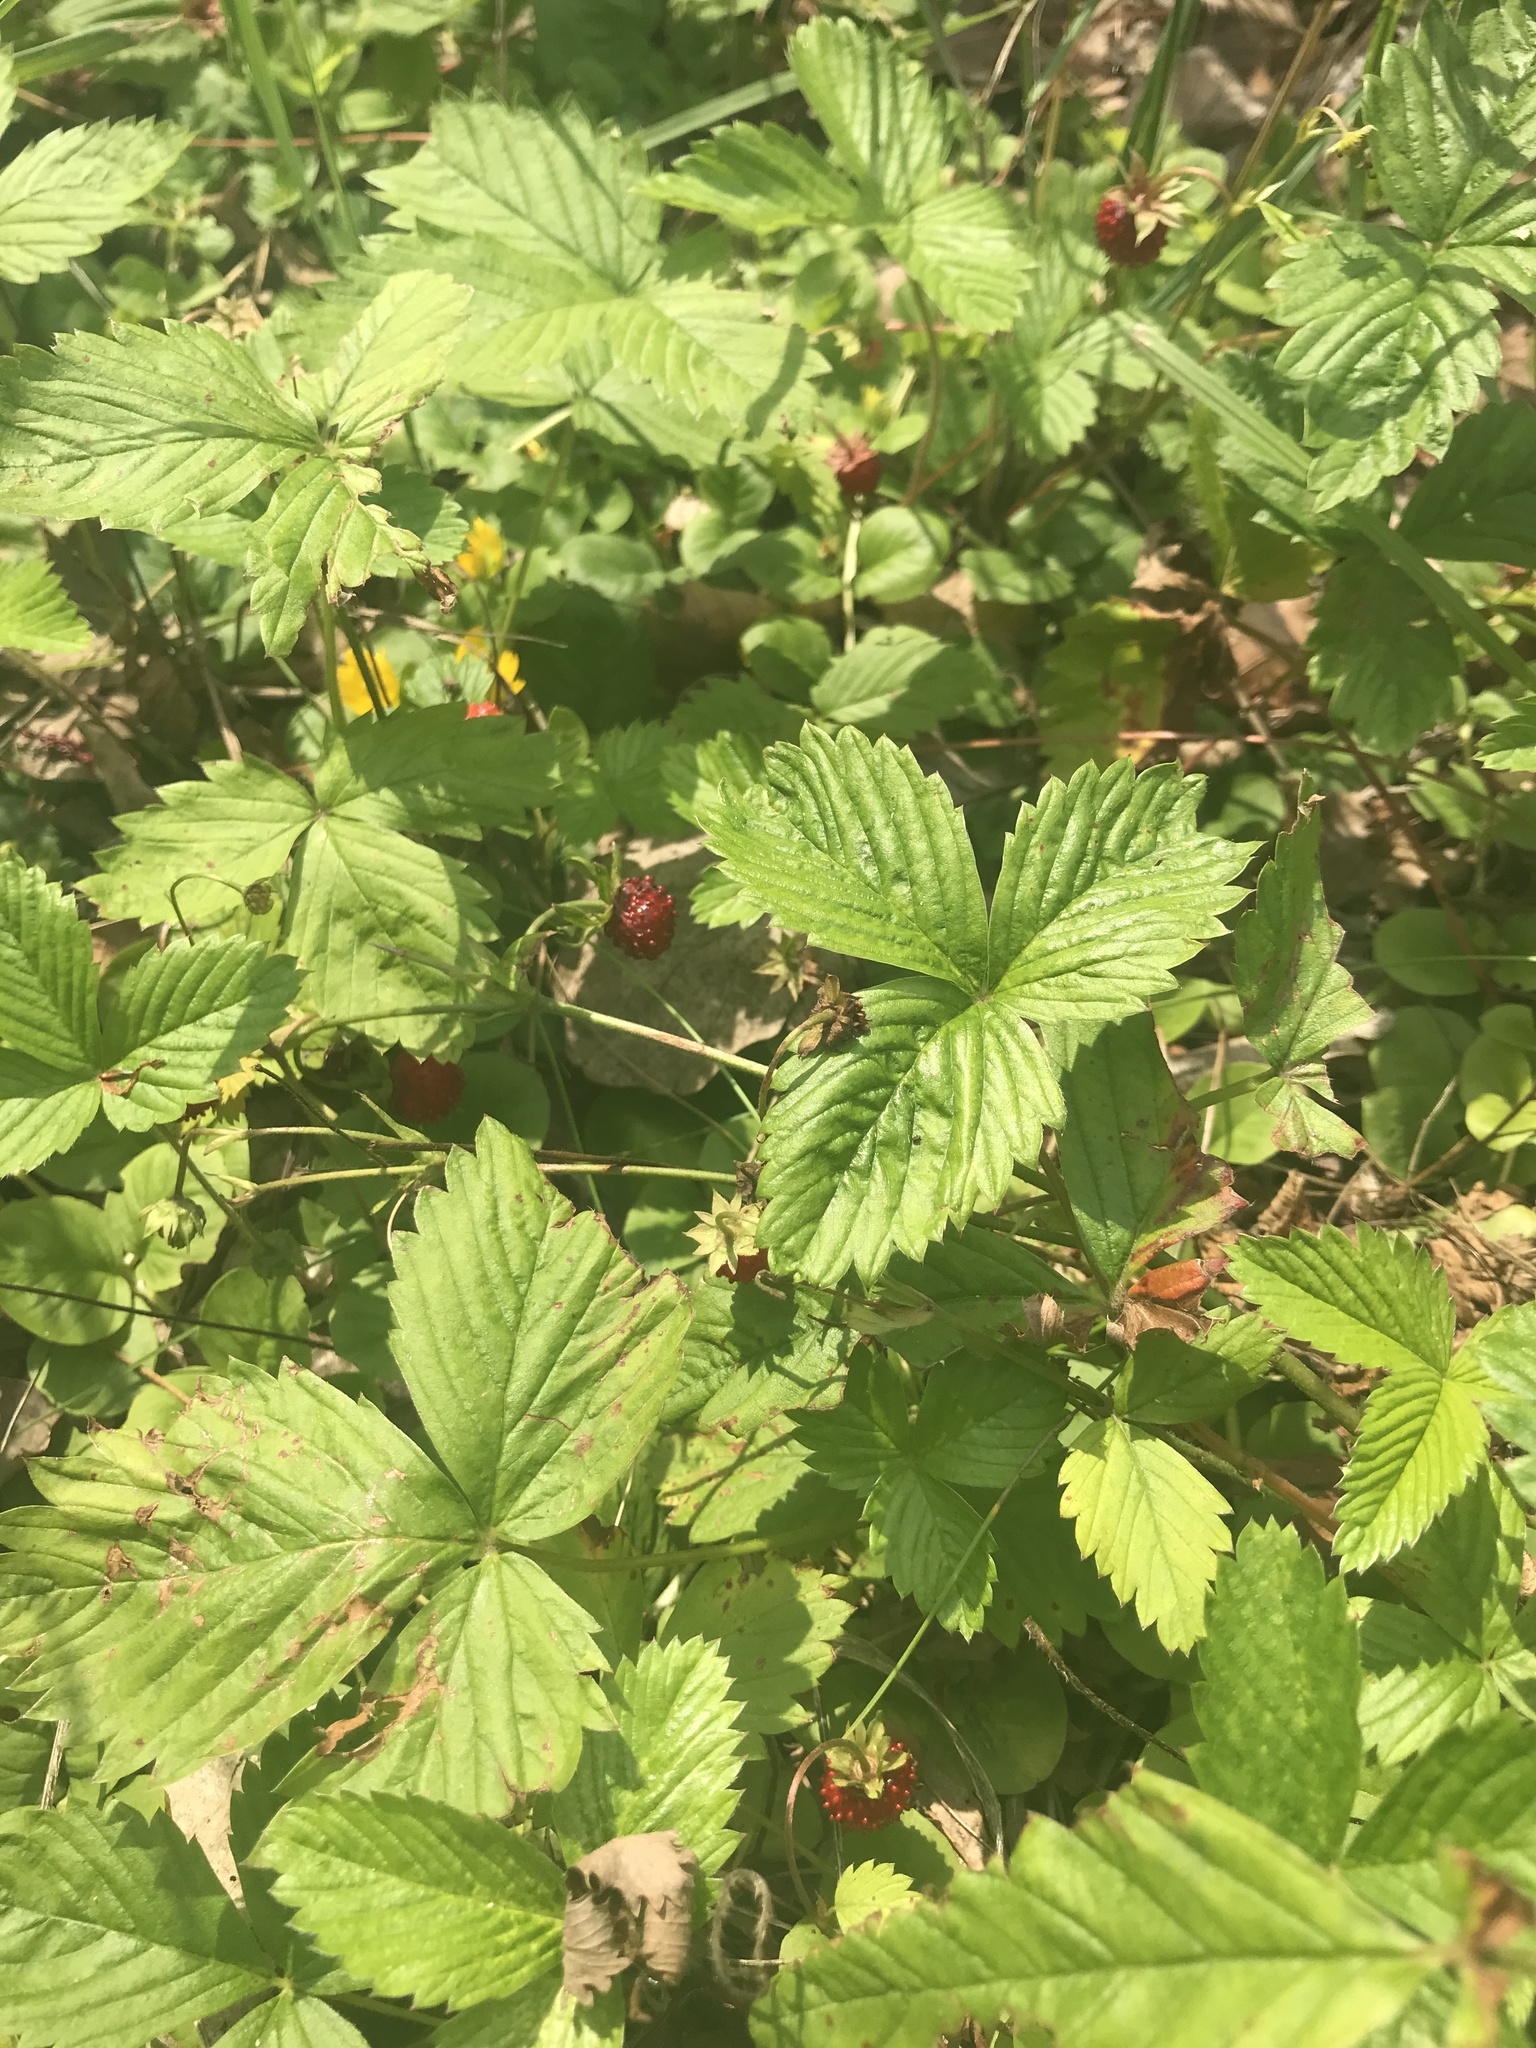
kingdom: Plantae
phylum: Tracheophyta
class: Magnoliopsida
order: Rosales
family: Rosaceae
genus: Fragaria
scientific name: Fragaria vesca
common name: Wild strawberry
